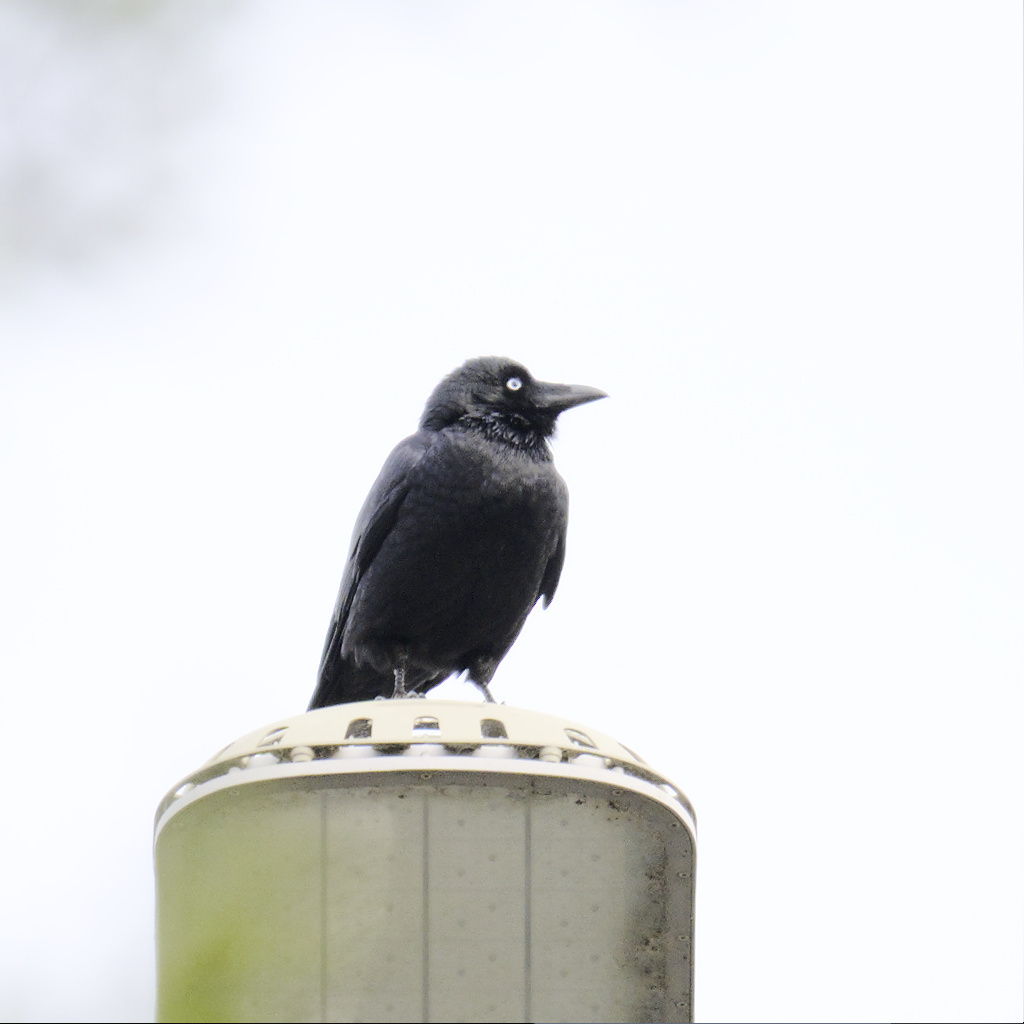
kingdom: Animalia
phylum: Chordata
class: Aves
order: Passeriformes
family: Corvidae
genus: Corvus
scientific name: Corvus mellori
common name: Little raven
